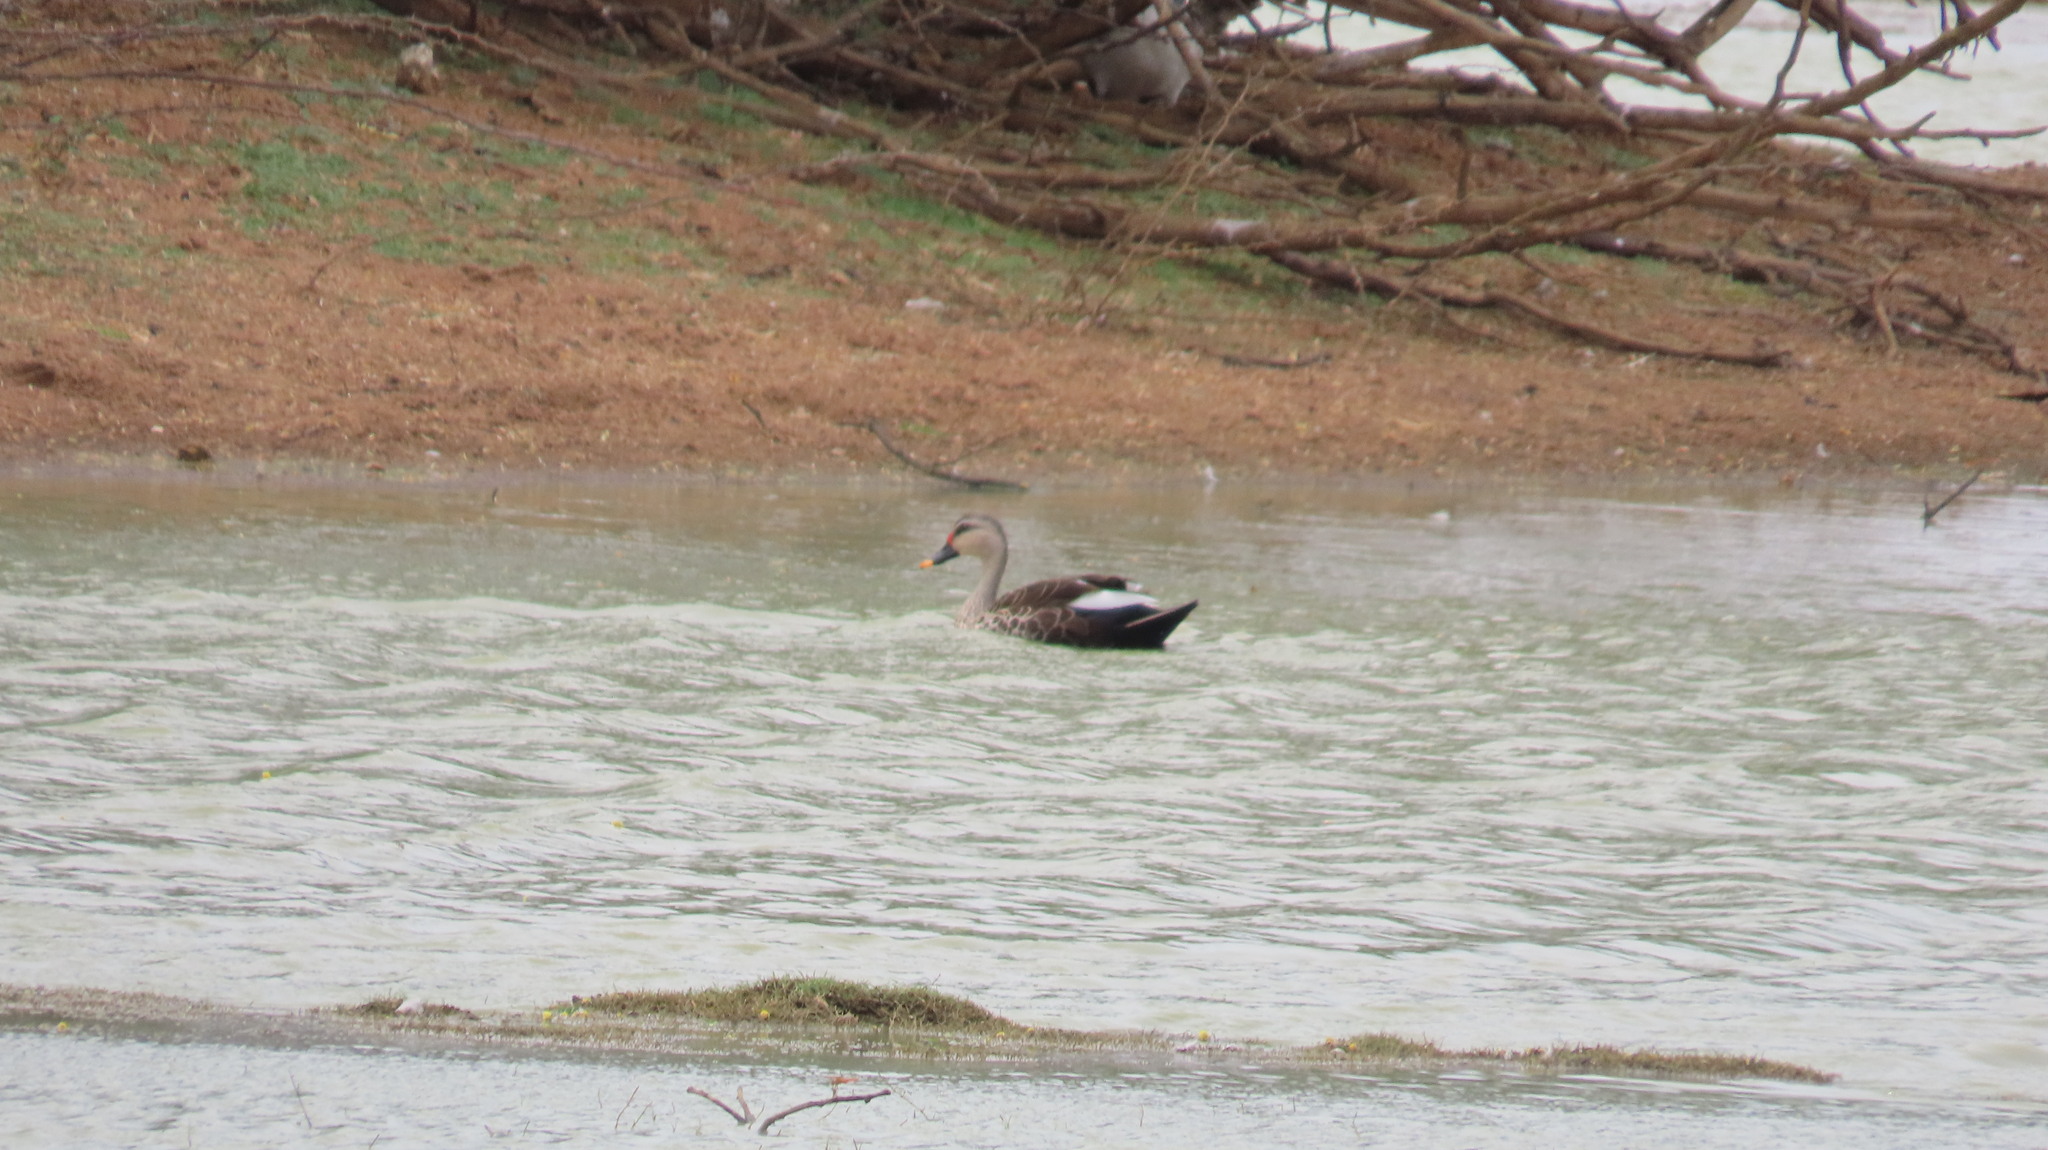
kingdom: Animalia
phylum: Chordata
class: Aves
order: Anseriformes
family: Anatidae
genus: Anas
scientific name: Anas poecilorhyncha
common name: Indian spot-billed duck
